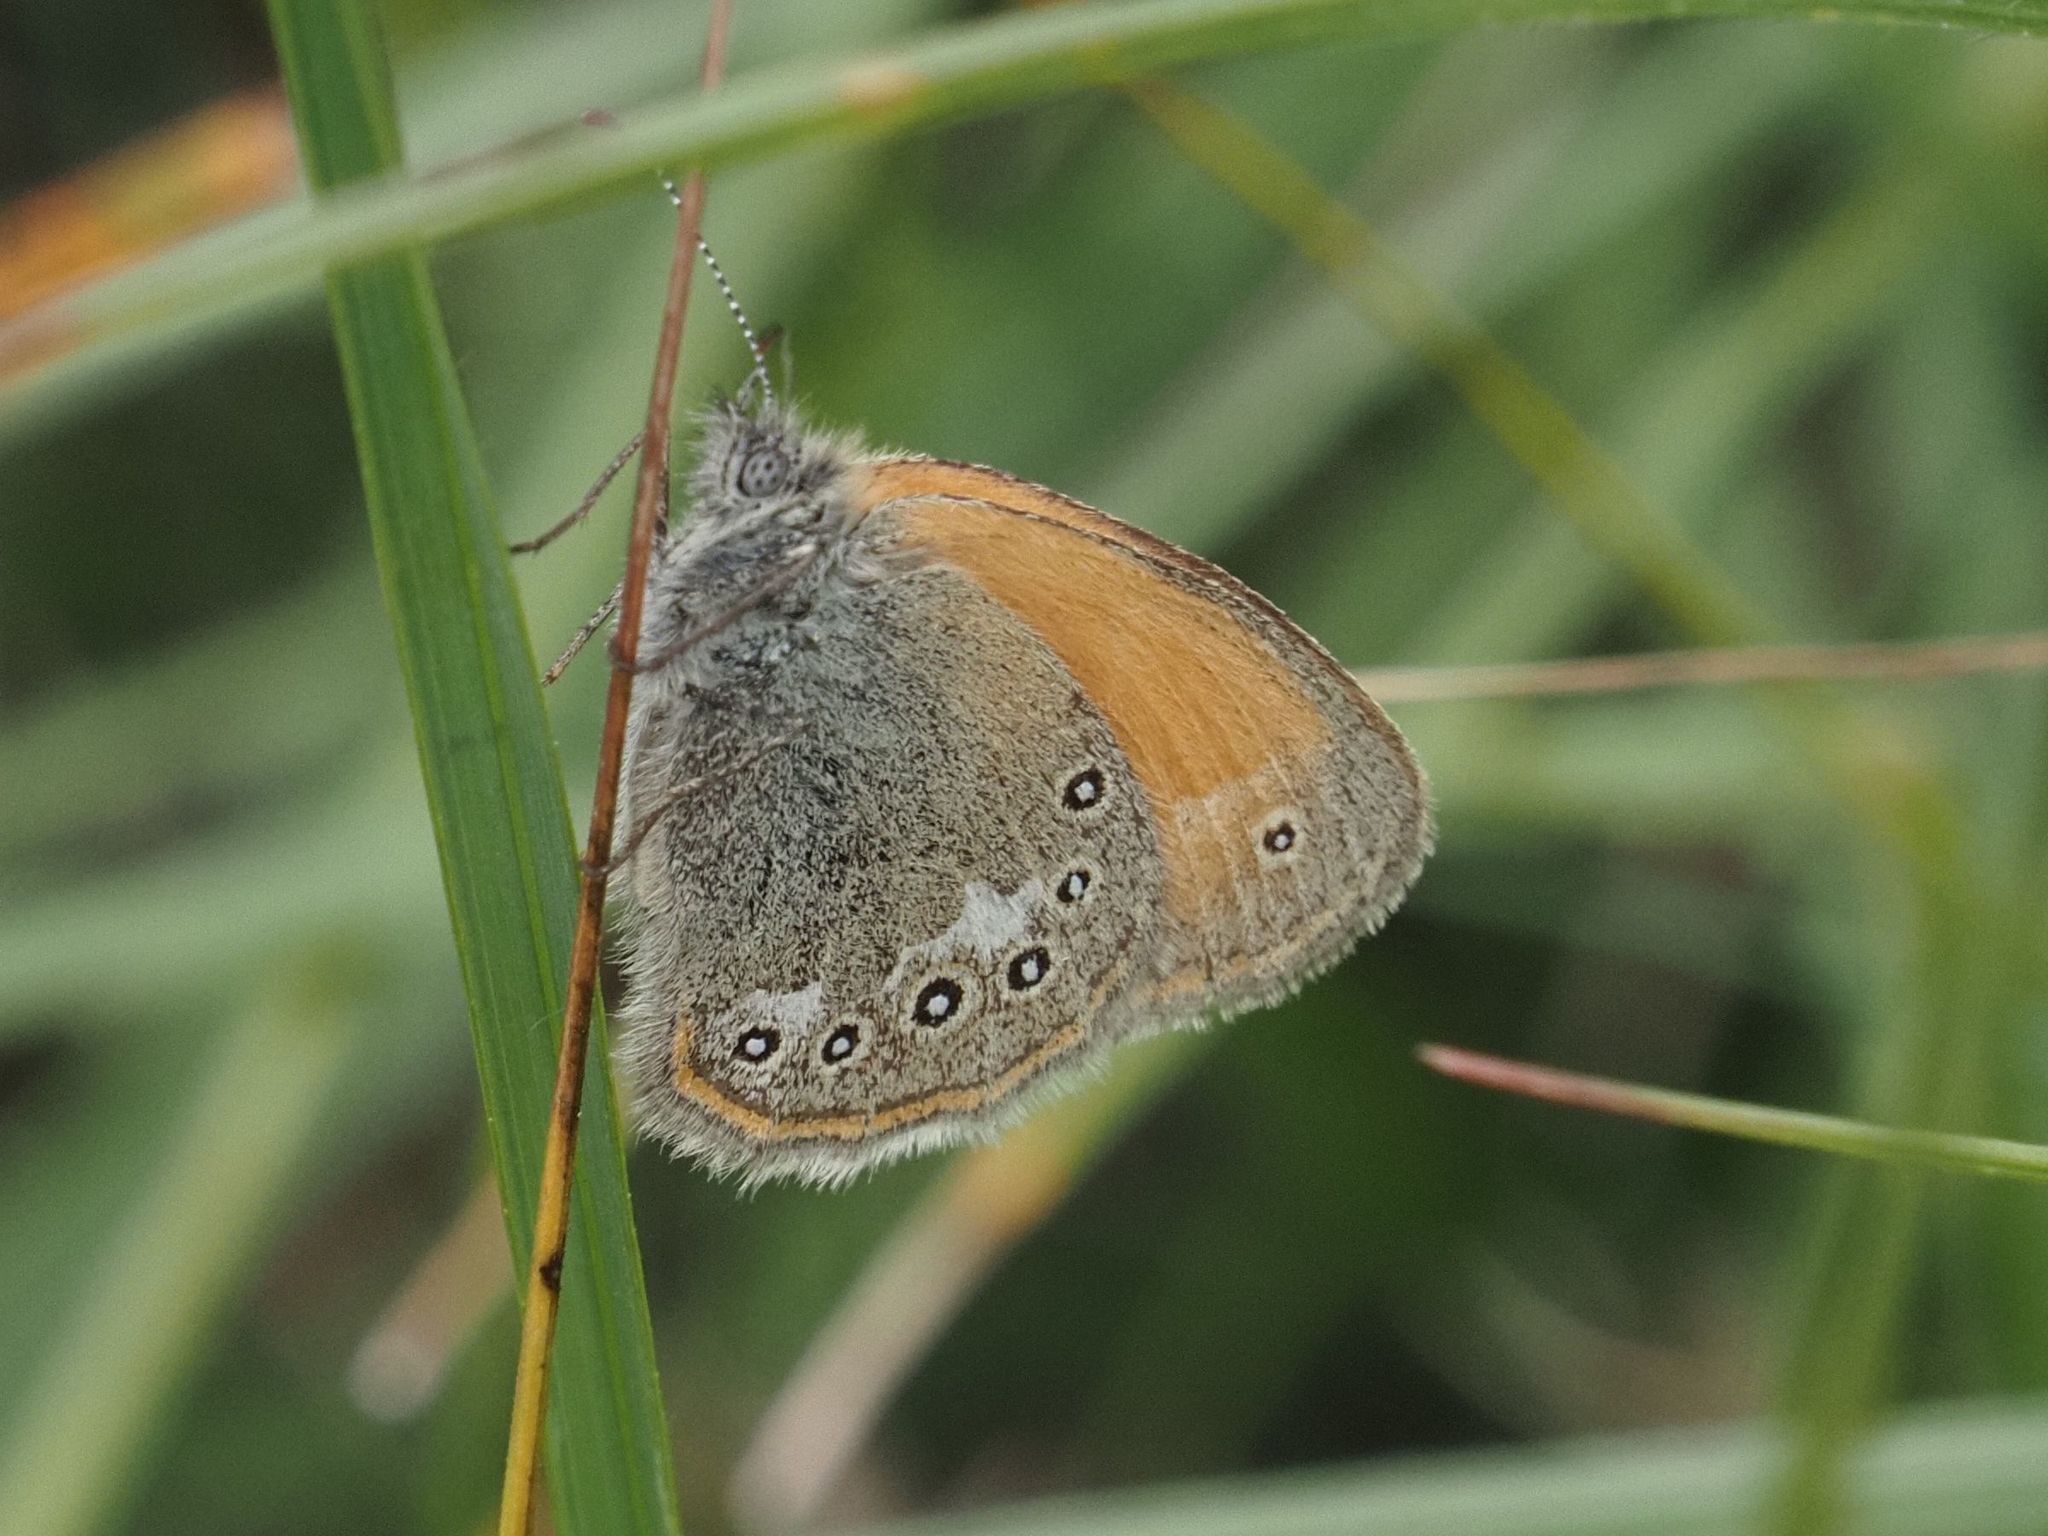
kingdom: Animalia
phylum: Arthropoda
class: Insecta
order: Lepidoptera
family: Nymphalidae
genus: Coenonympha
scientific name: Coenonympha iphis
